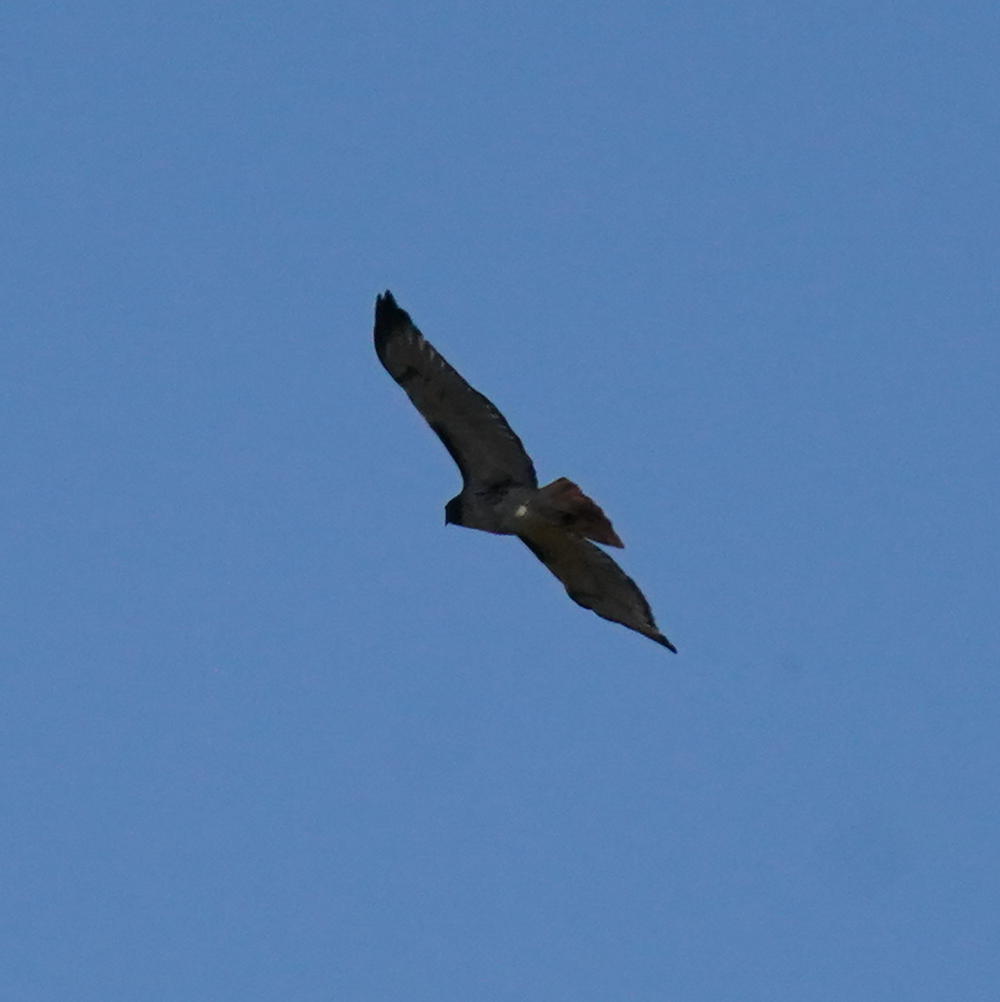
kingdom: Animalia
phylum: Chordata
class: Aves
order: Accipitriformes
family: Accipitridae
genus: Buteo
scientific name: Buteo jamaicensis
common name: Red-tailed hawk
